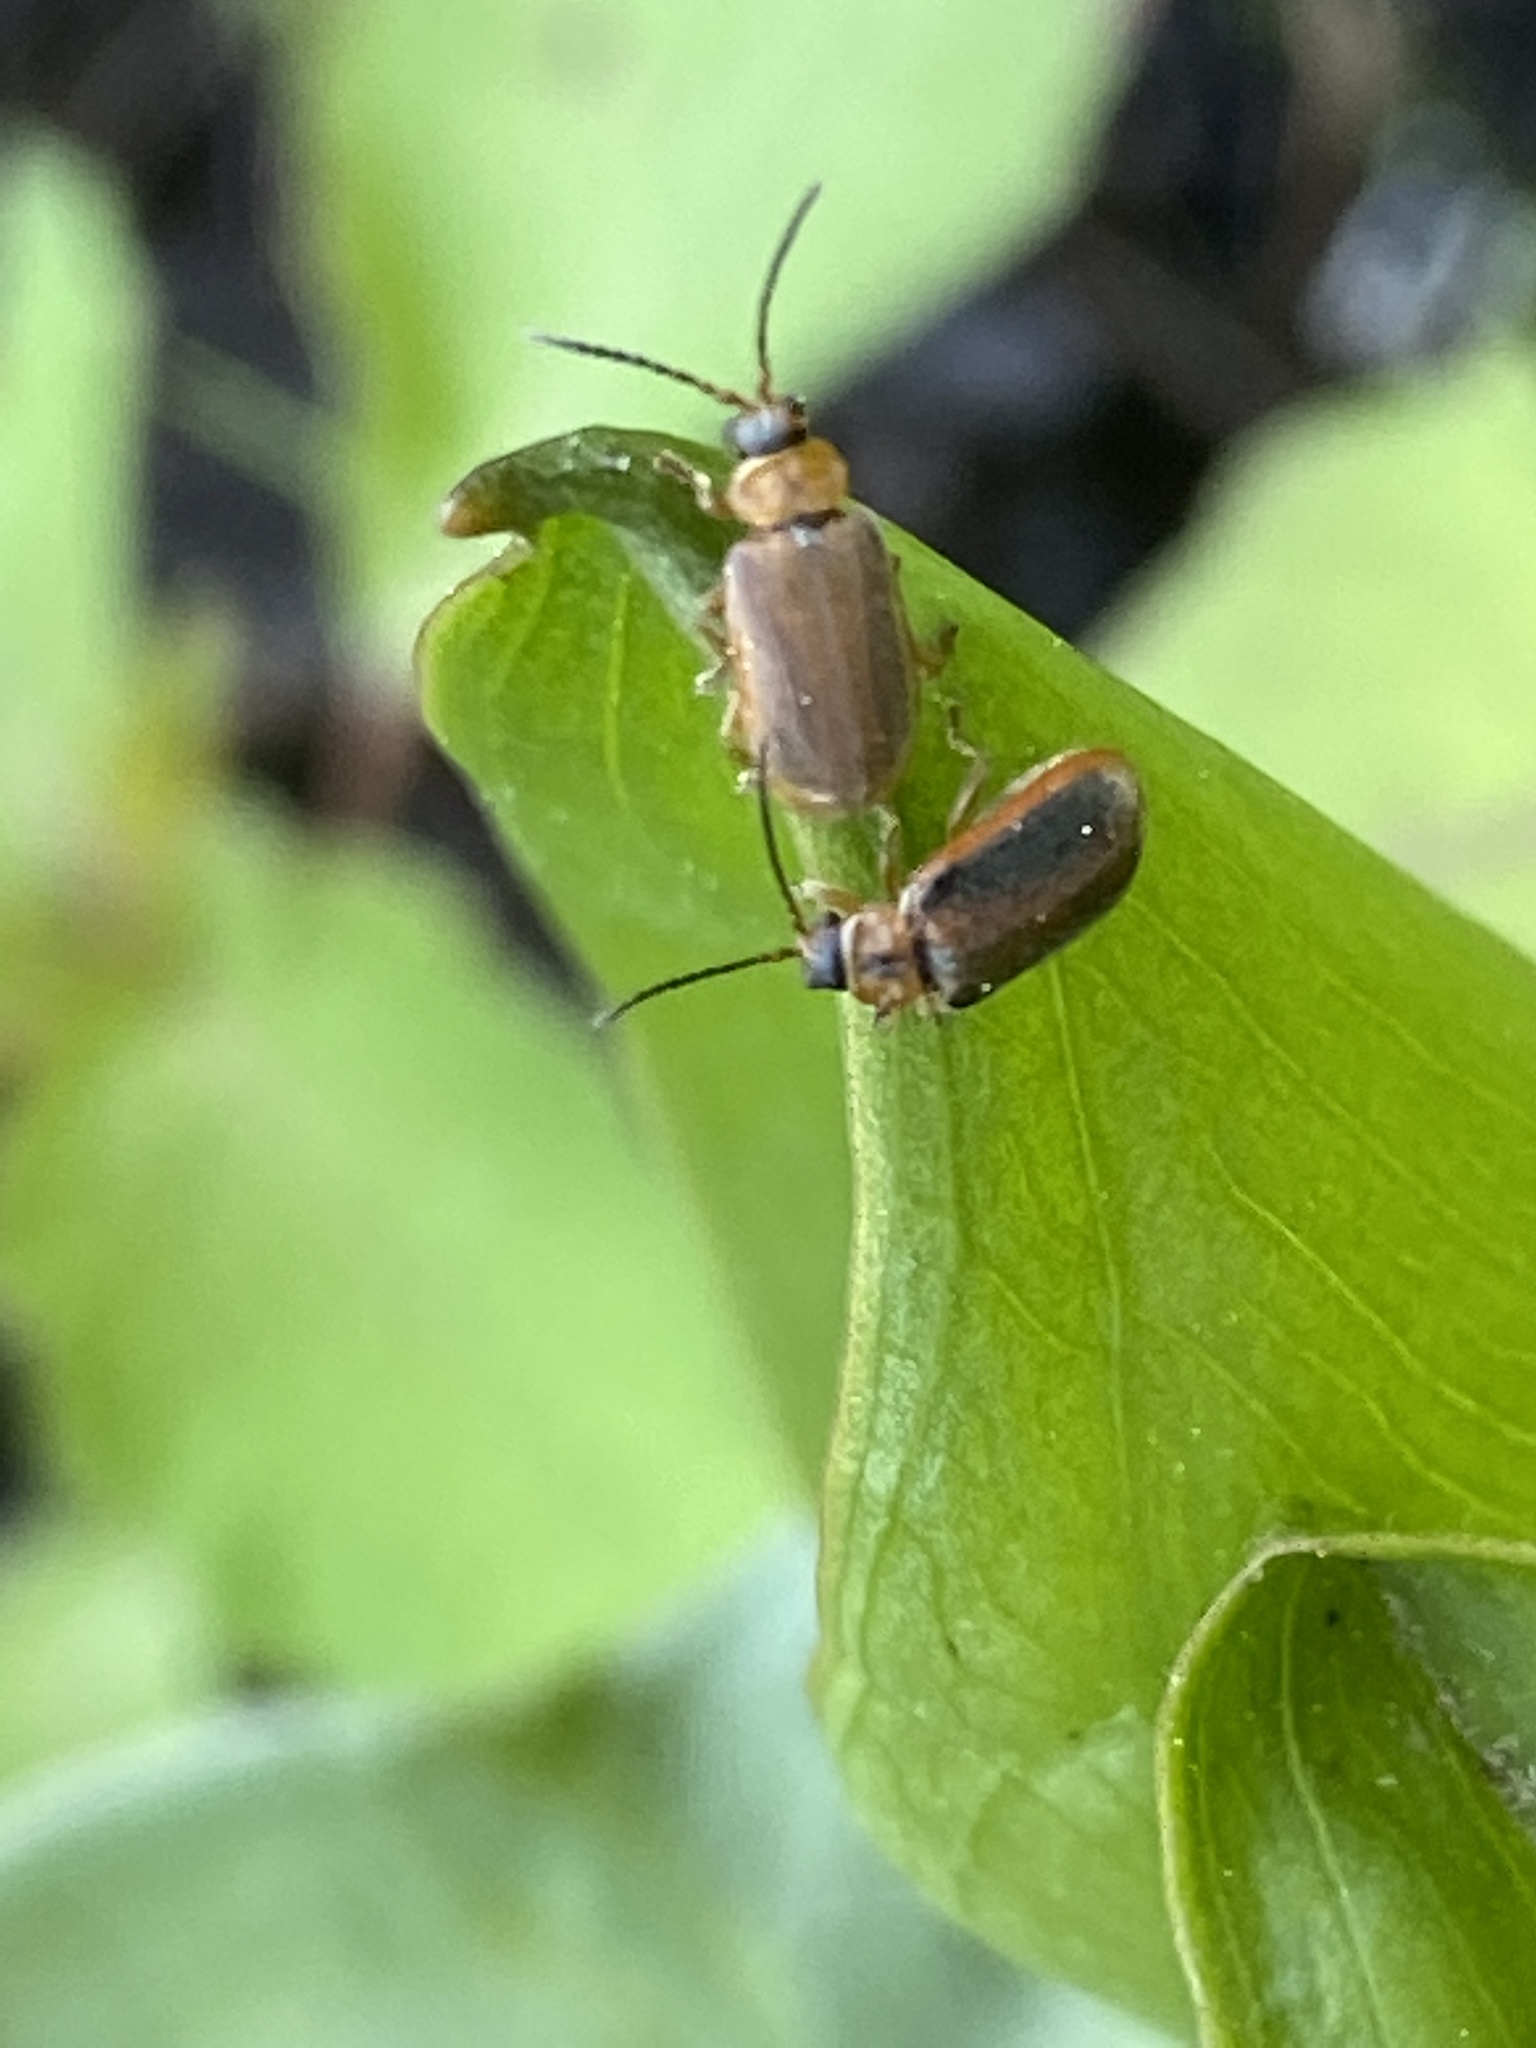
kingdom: Animalia
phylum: Arthropoda
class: Insecta
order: Coleoptera
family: Chrysomelidae
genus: Neogalerucella
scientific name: Neogalerucella calmariensis
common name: Black-margined loosestrife beetle
